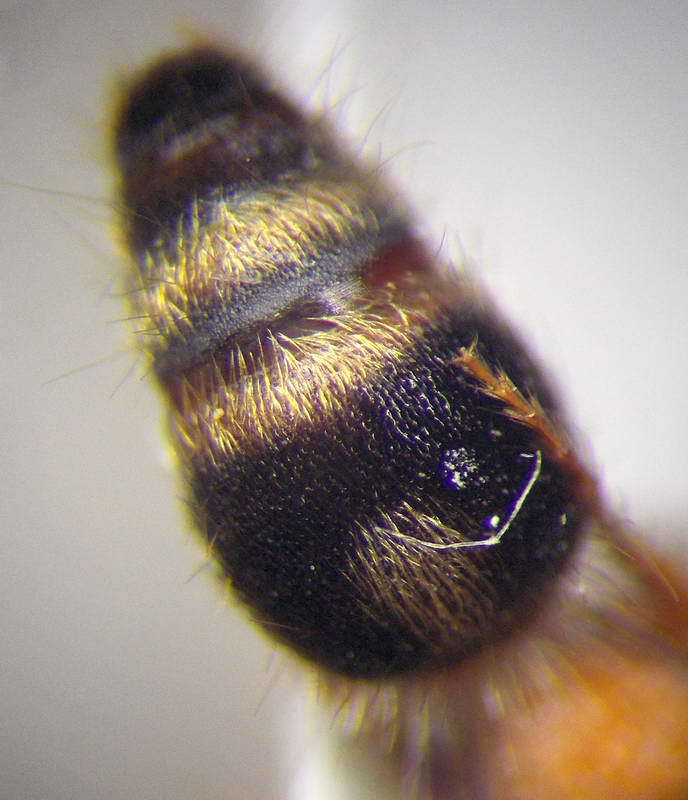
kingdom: Animalia
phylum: Arthropoda
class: Insecta
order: Hymenoptera
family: Mutillidae
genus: Smicromyrme
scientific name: Smicromyrme rufipes
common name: Small velvet ant
